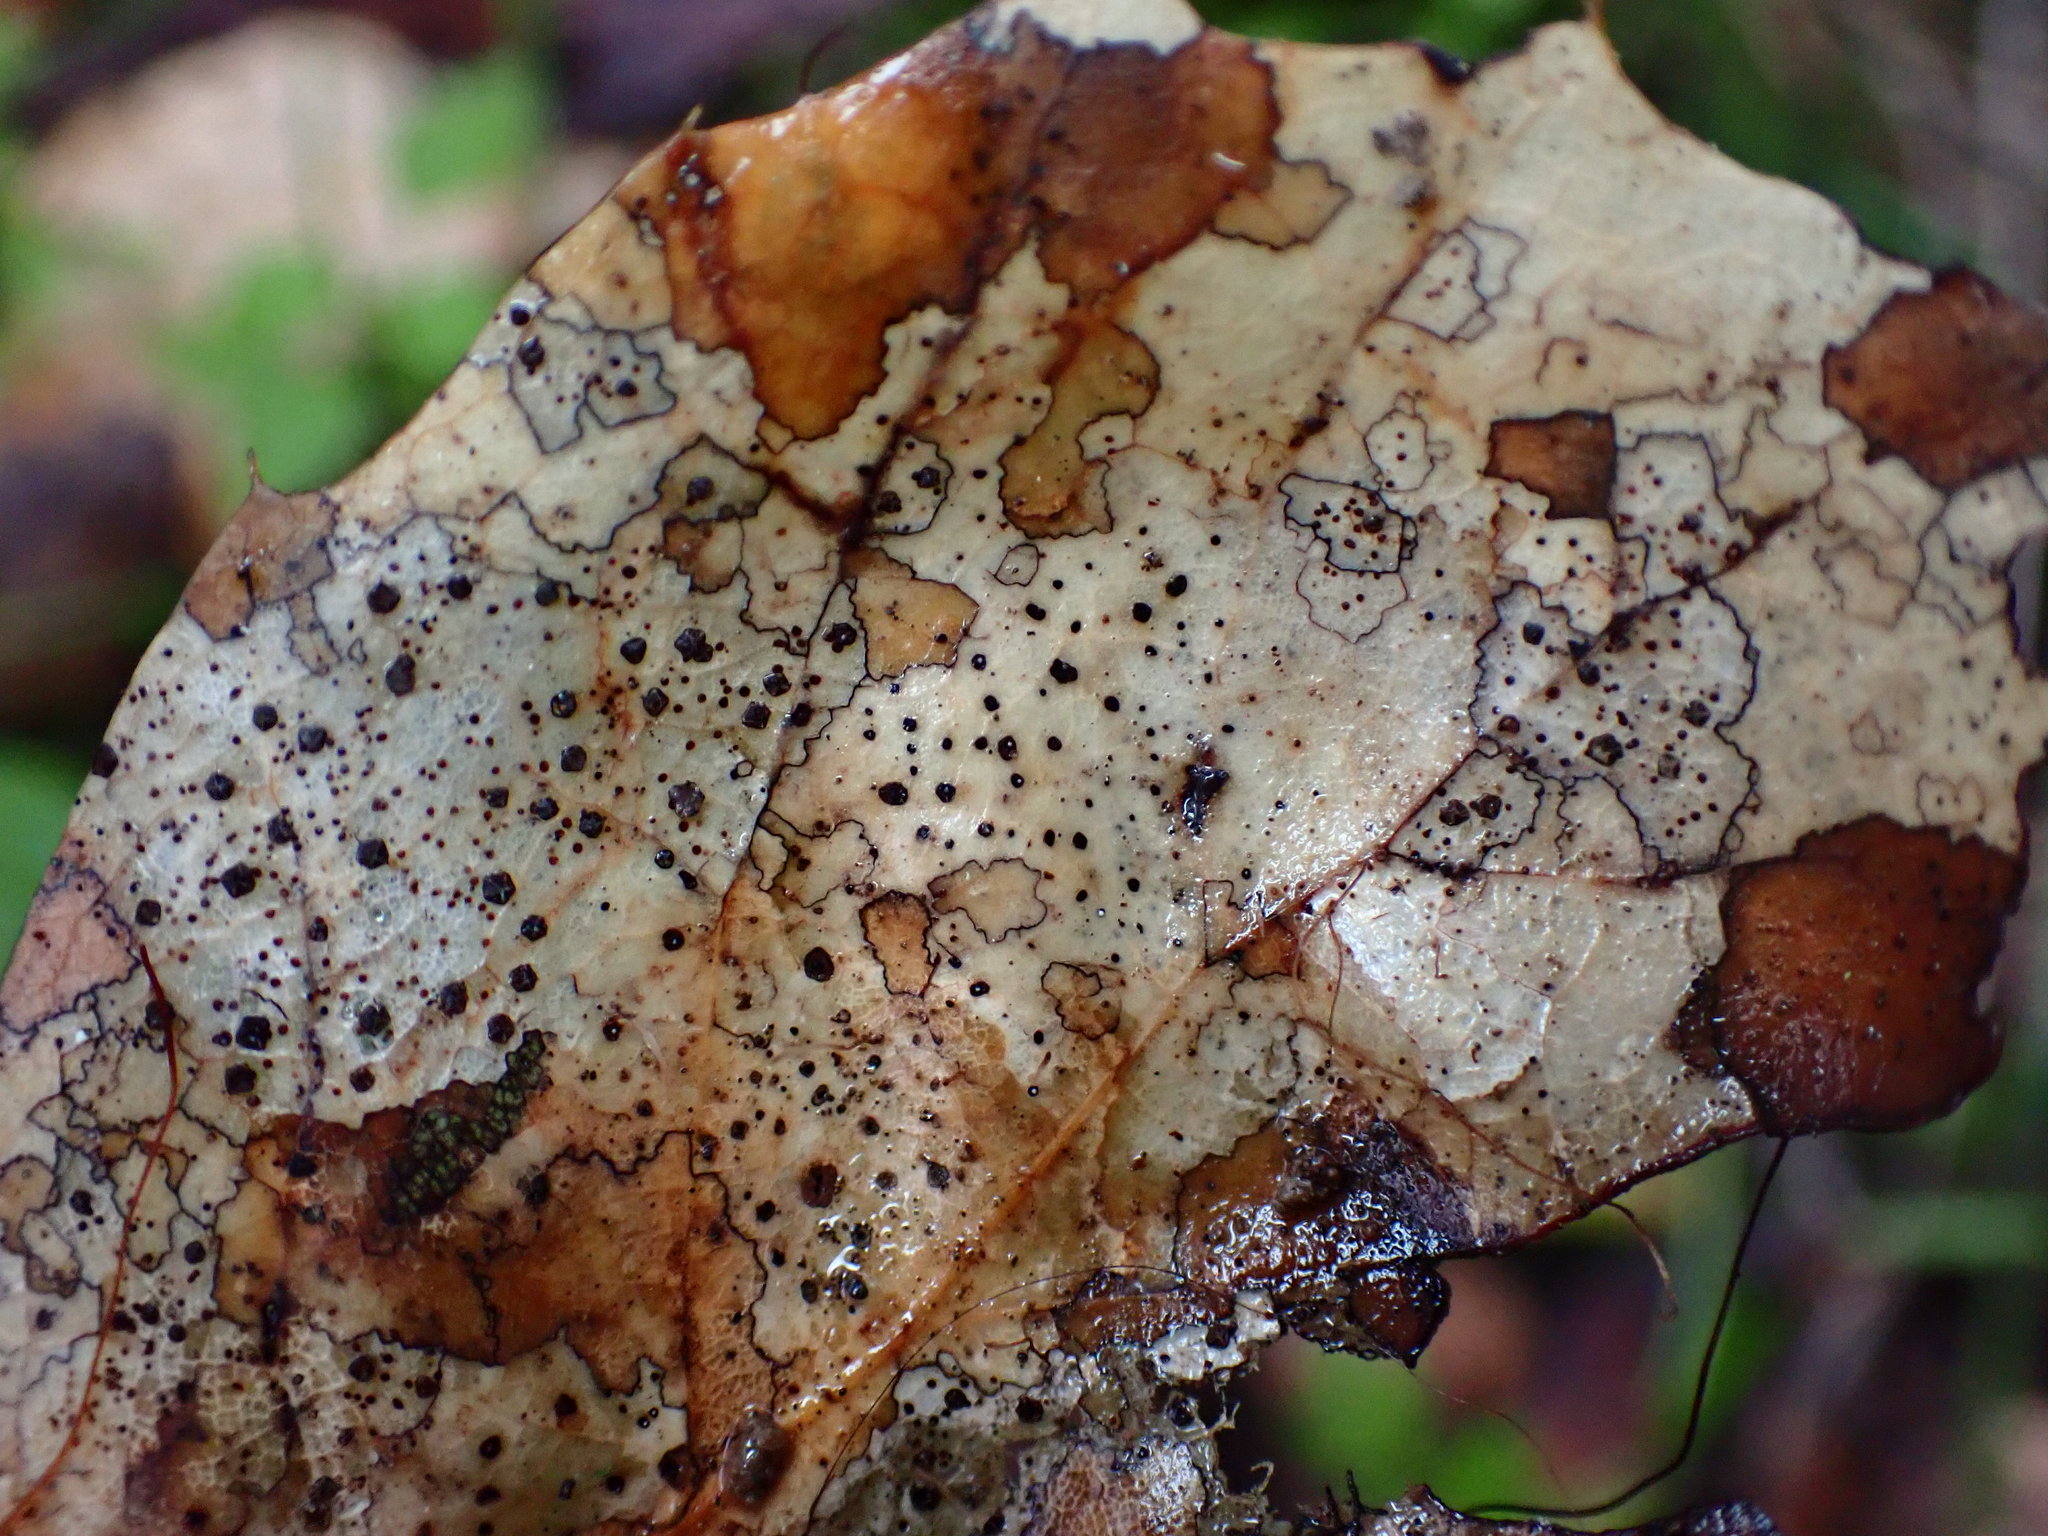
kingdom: Fungi
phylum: Ascomycota
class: Leotiomycetes
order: Rhytismatales
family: Rhytismataceae
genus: Coccomyces
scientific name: Coccomyces dentatus
